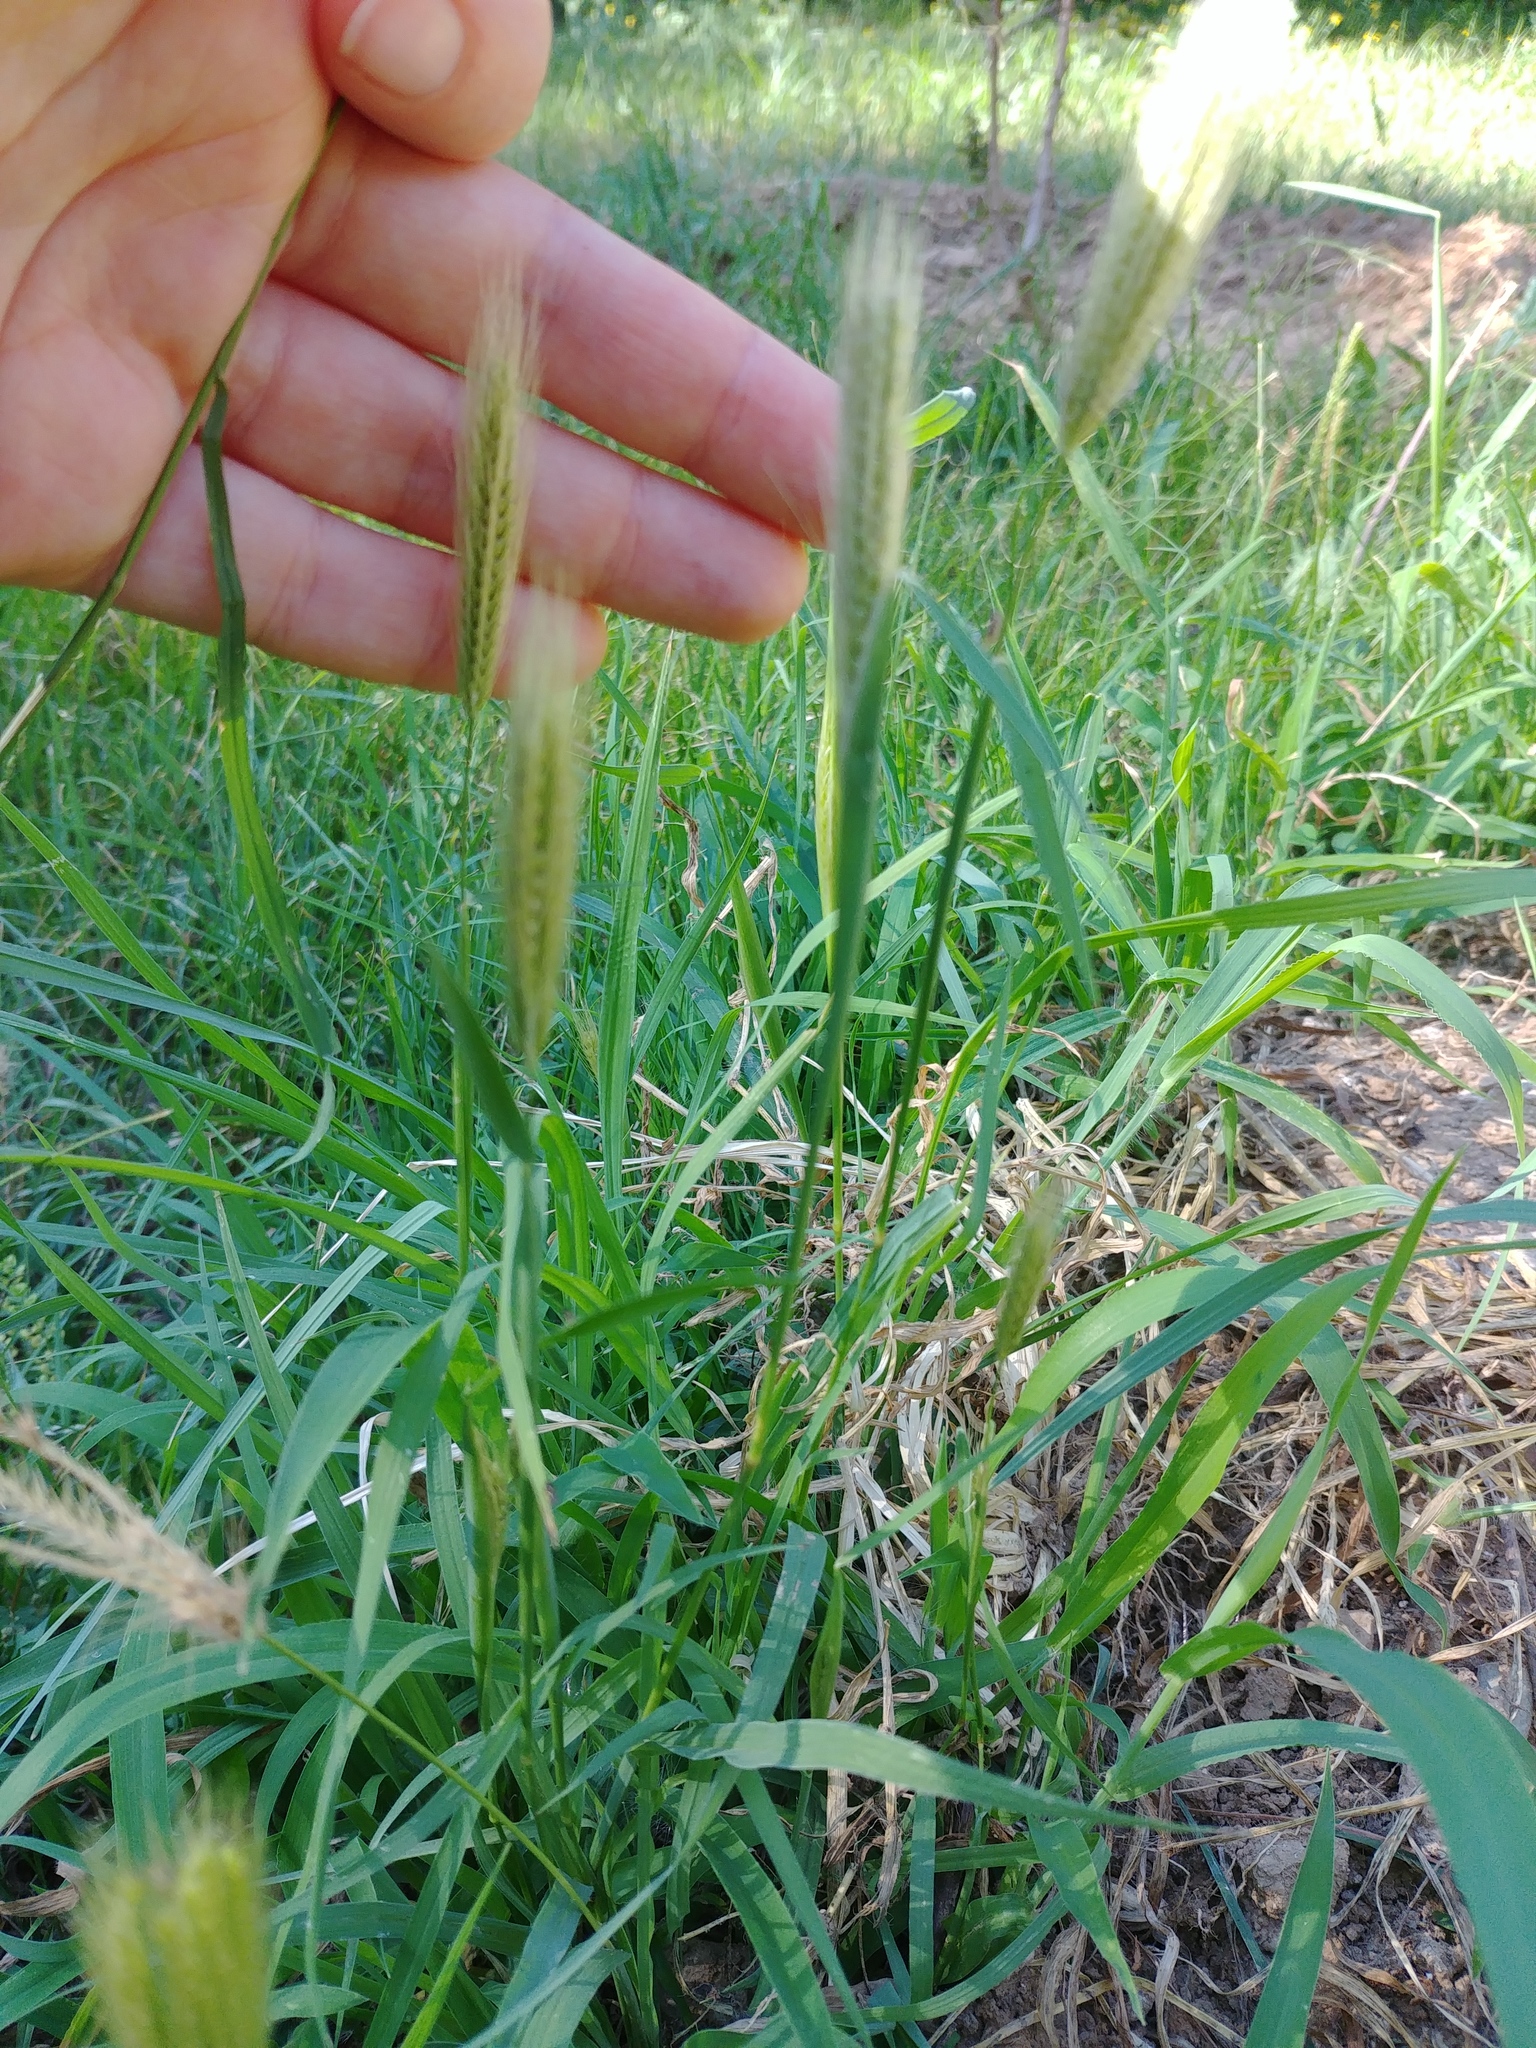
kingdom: Plantae
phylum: Tracheophyta
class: Liliopsida
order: Poales
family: Poaceae
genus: Chloris
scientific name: Chloris virgata
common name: Feathery rhodes-grass
